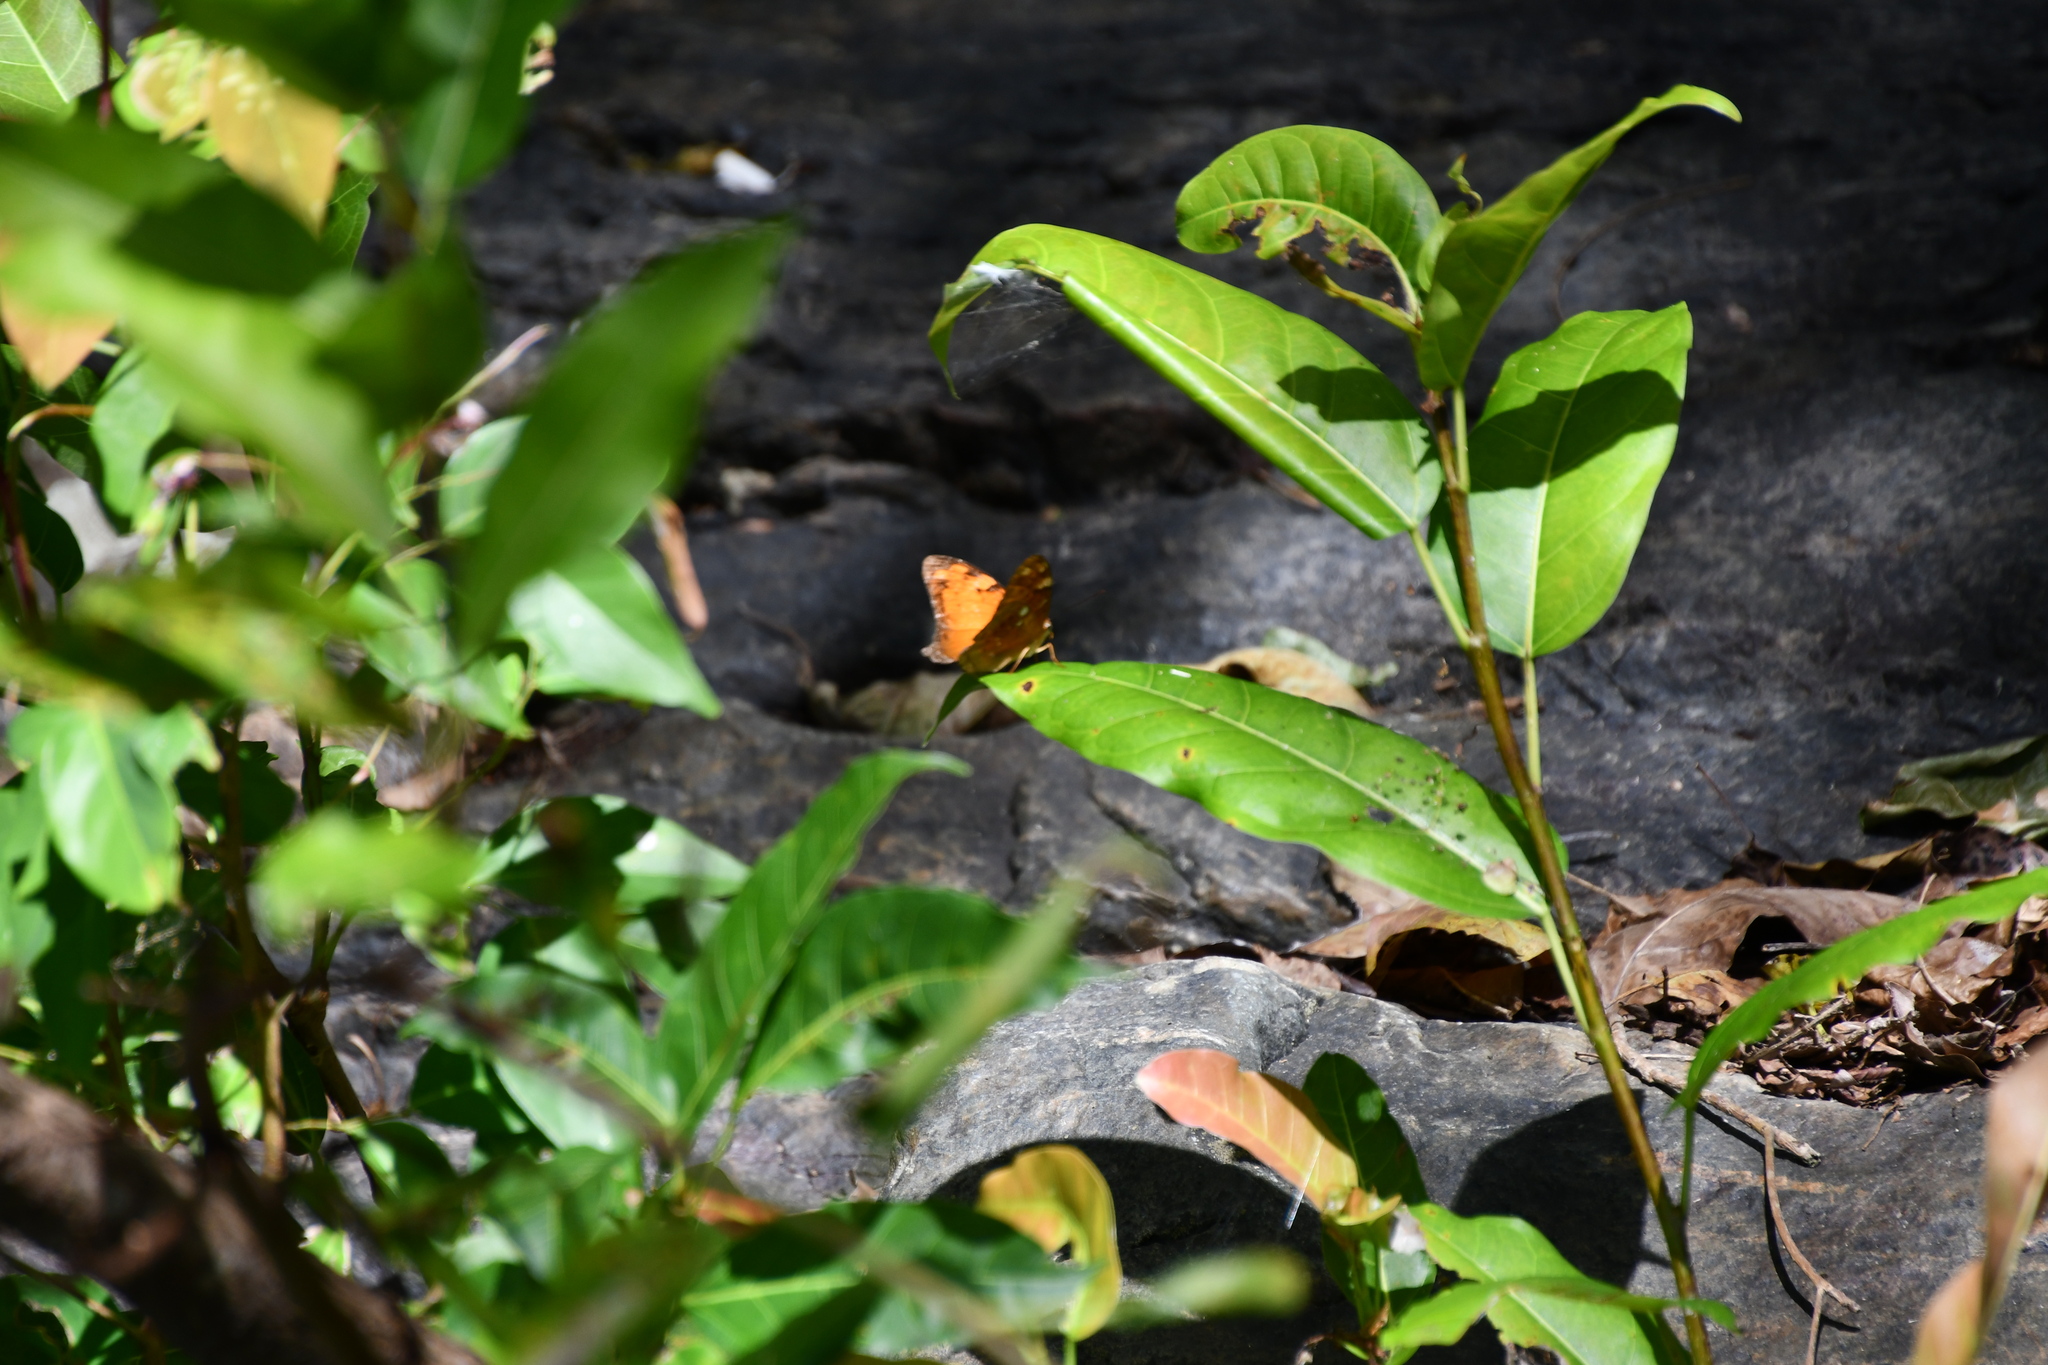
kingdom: Animalia
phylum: Arthropoda
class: Insecta
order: Lepidoptera
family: Nymphalidae
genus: Vagrans
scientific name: Vagrans egista
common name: Tailed rustic
